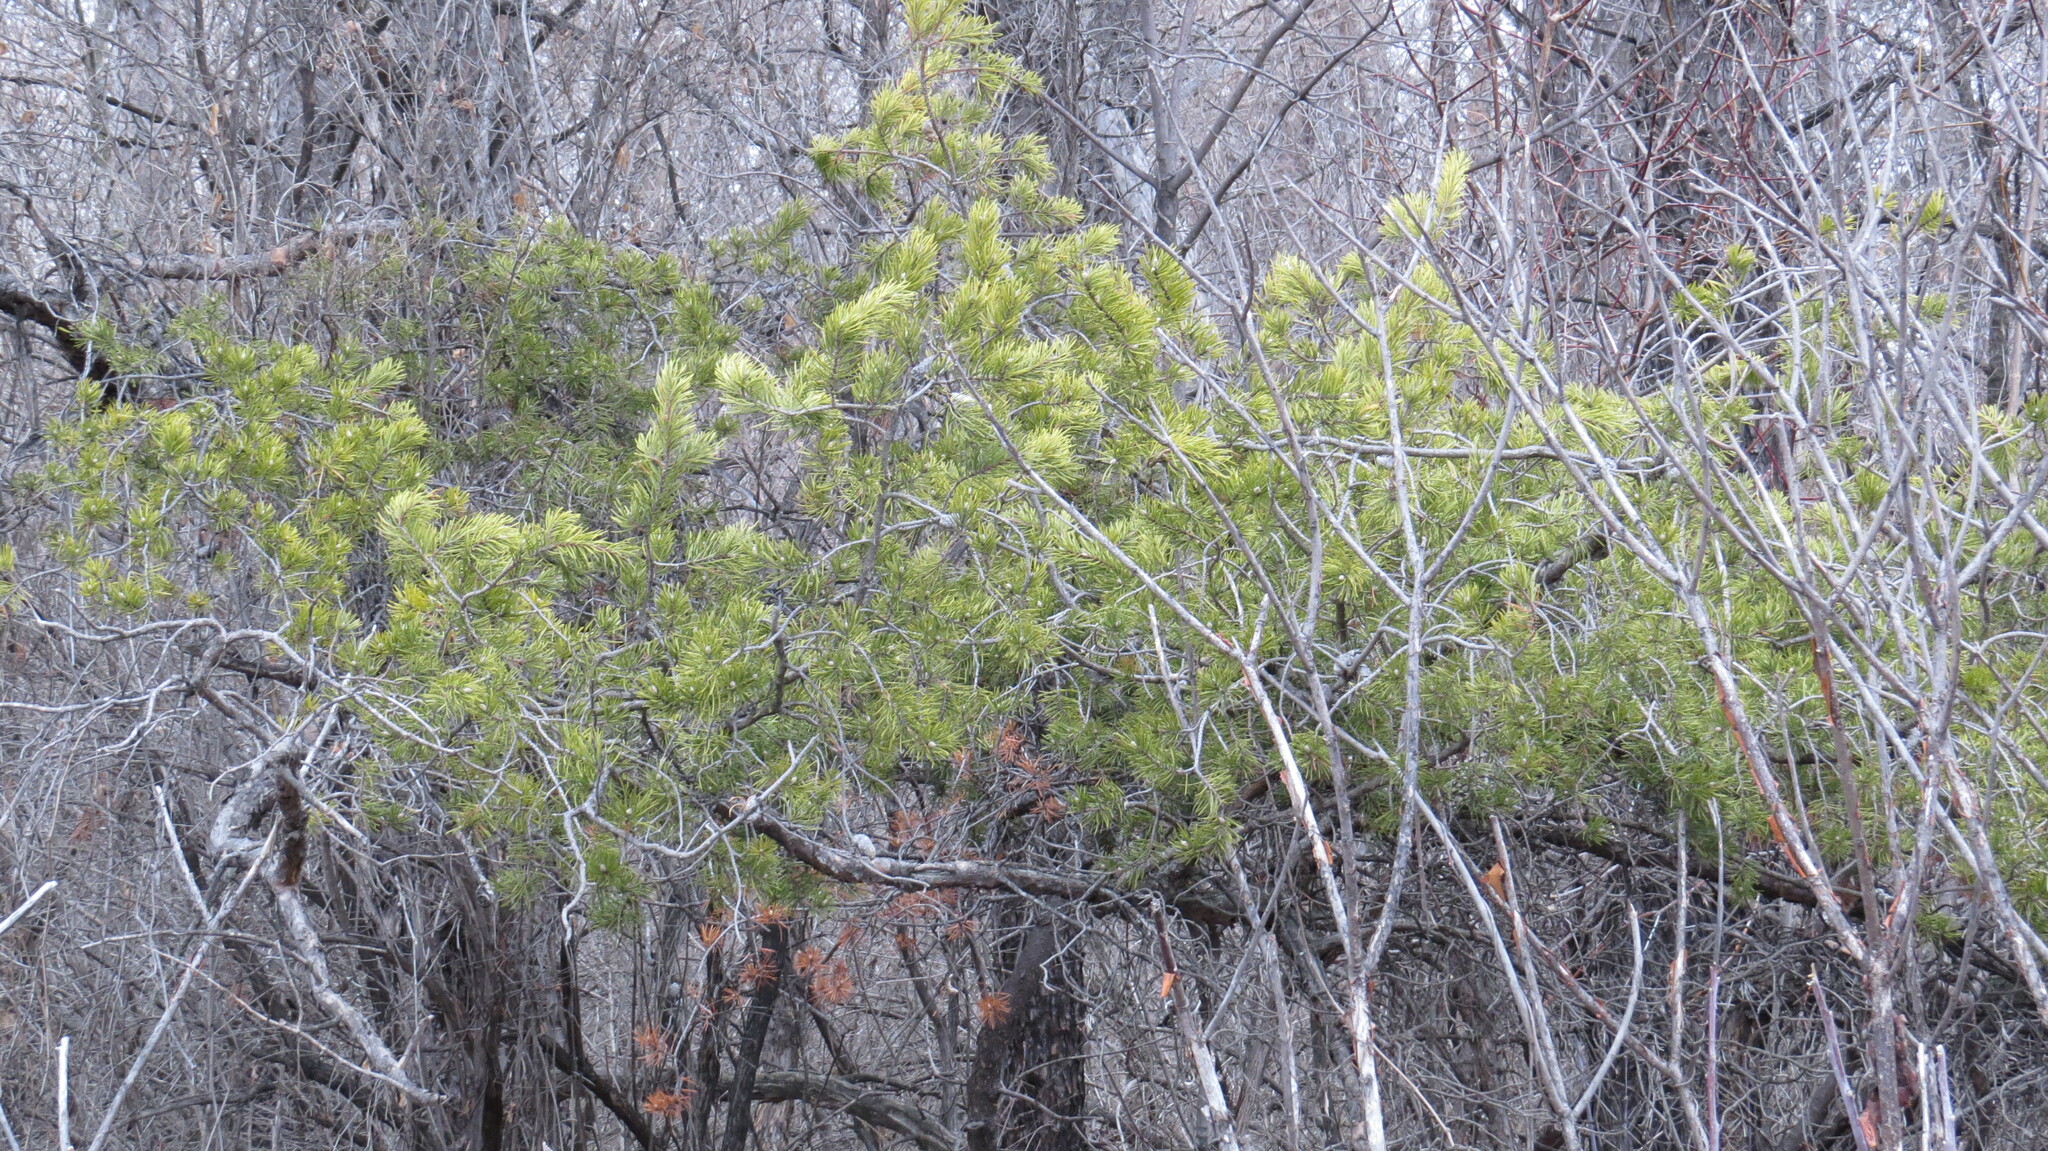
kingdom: Plantae
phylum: Tracheophyta
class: Pinopsida
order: Pinales
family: Pinaceae
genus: Pinus
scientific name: Pinus banksiana
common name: Jack pine
